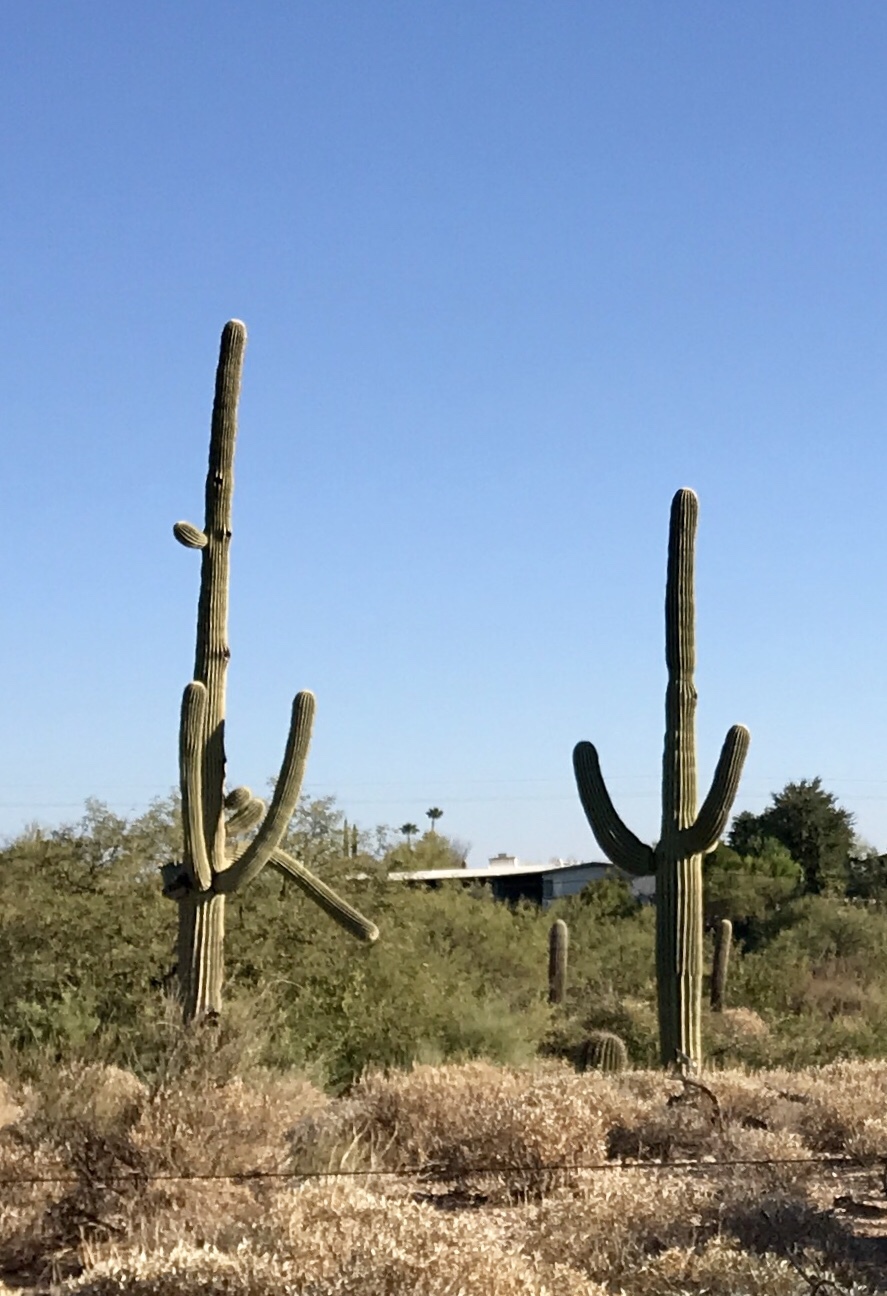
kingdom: Plantae
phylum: Tracheophyta
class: Magnoliopsida
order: Caryophyllales
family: Cactaceae
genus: Carnegiea
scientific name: Carnegiea gigantea
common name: Saguaro
